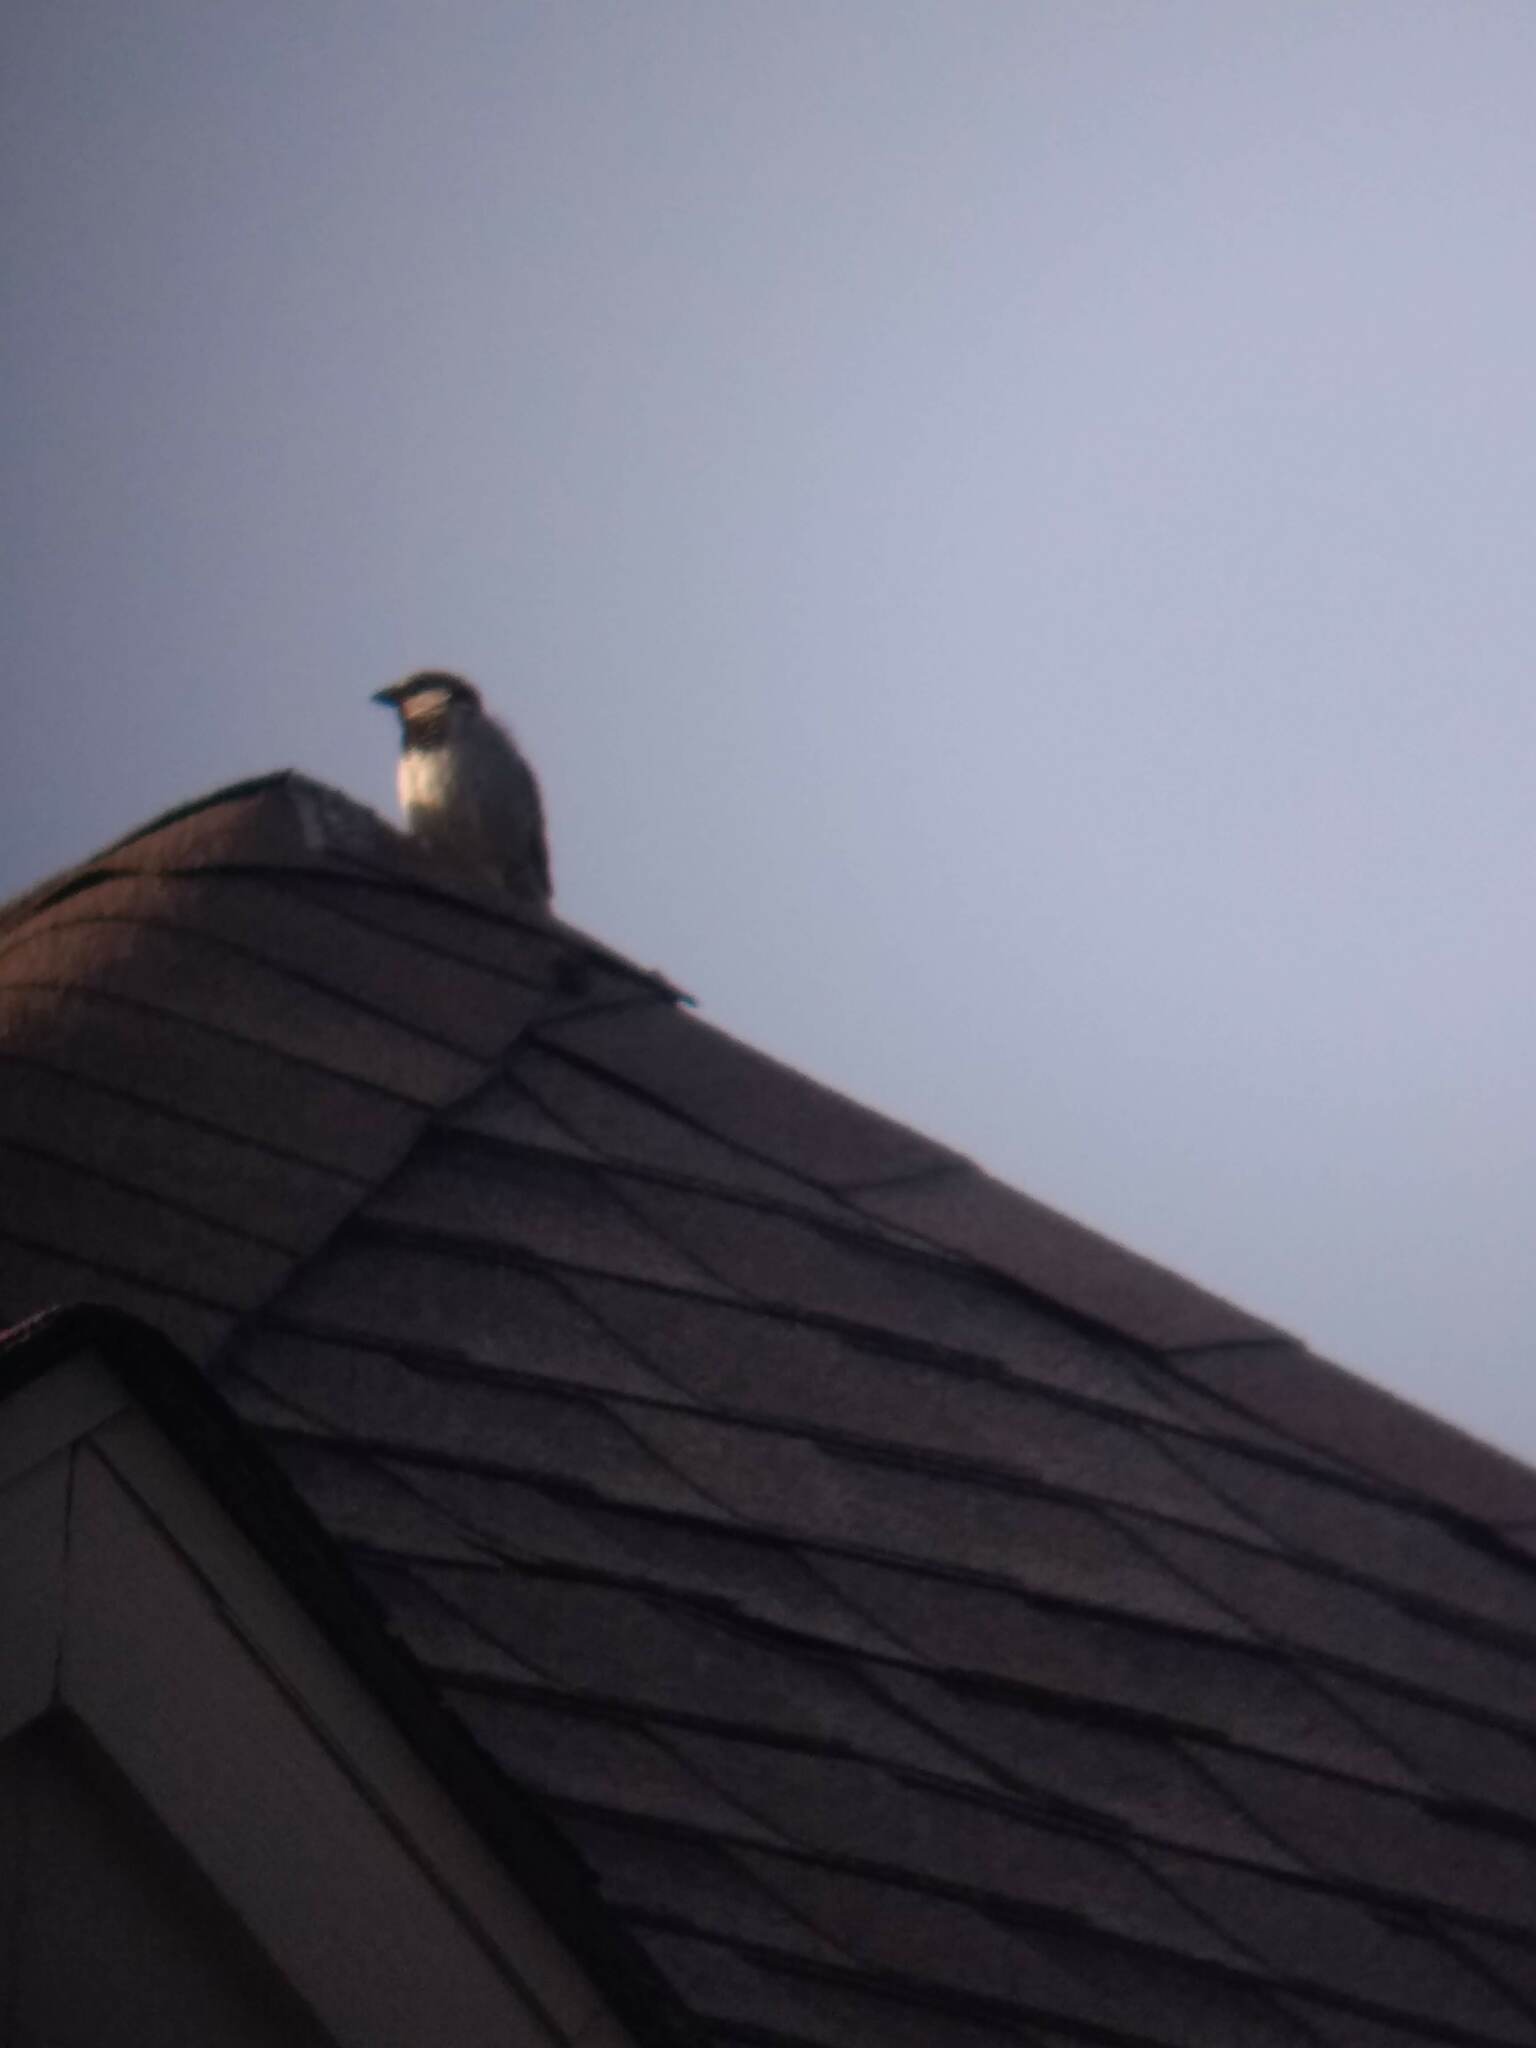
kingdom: Animalia
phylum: Chordata
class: Aves
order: Passeriformes
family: Passeridae
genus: Passer
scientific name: Passer domesticus
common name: House sparrow
